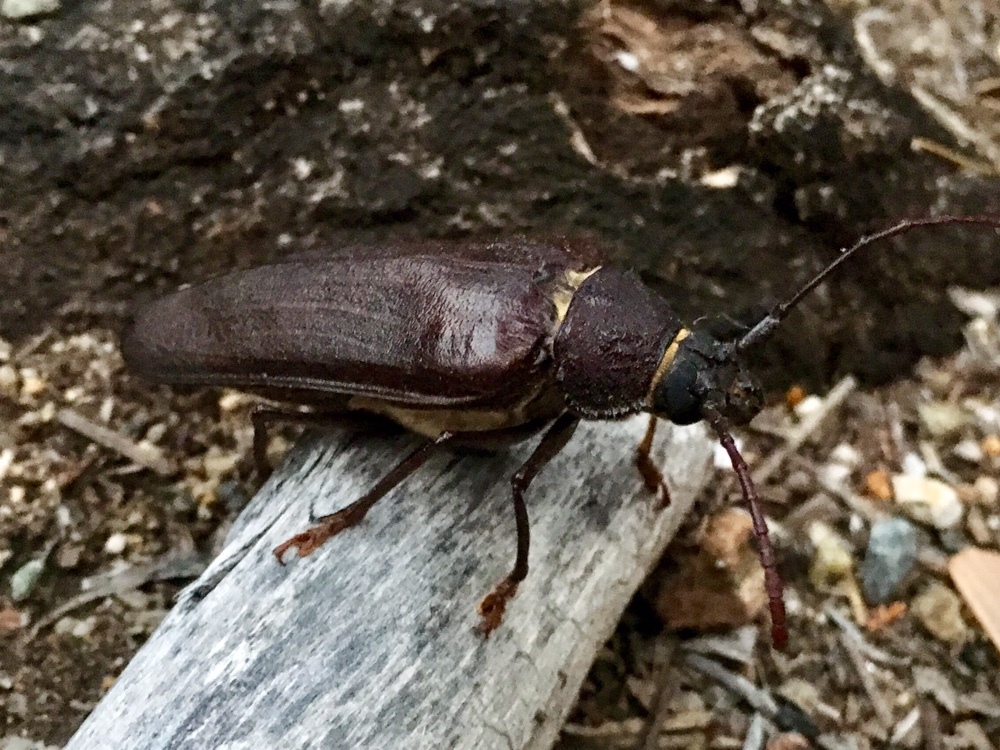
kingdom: Animalia
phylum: Arthropoda
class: Insecta
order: Coleoptera
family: Cerambycidae
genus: Trichocnemis
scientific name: Trichocnemis spiculatus
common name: Long-horned beetle
